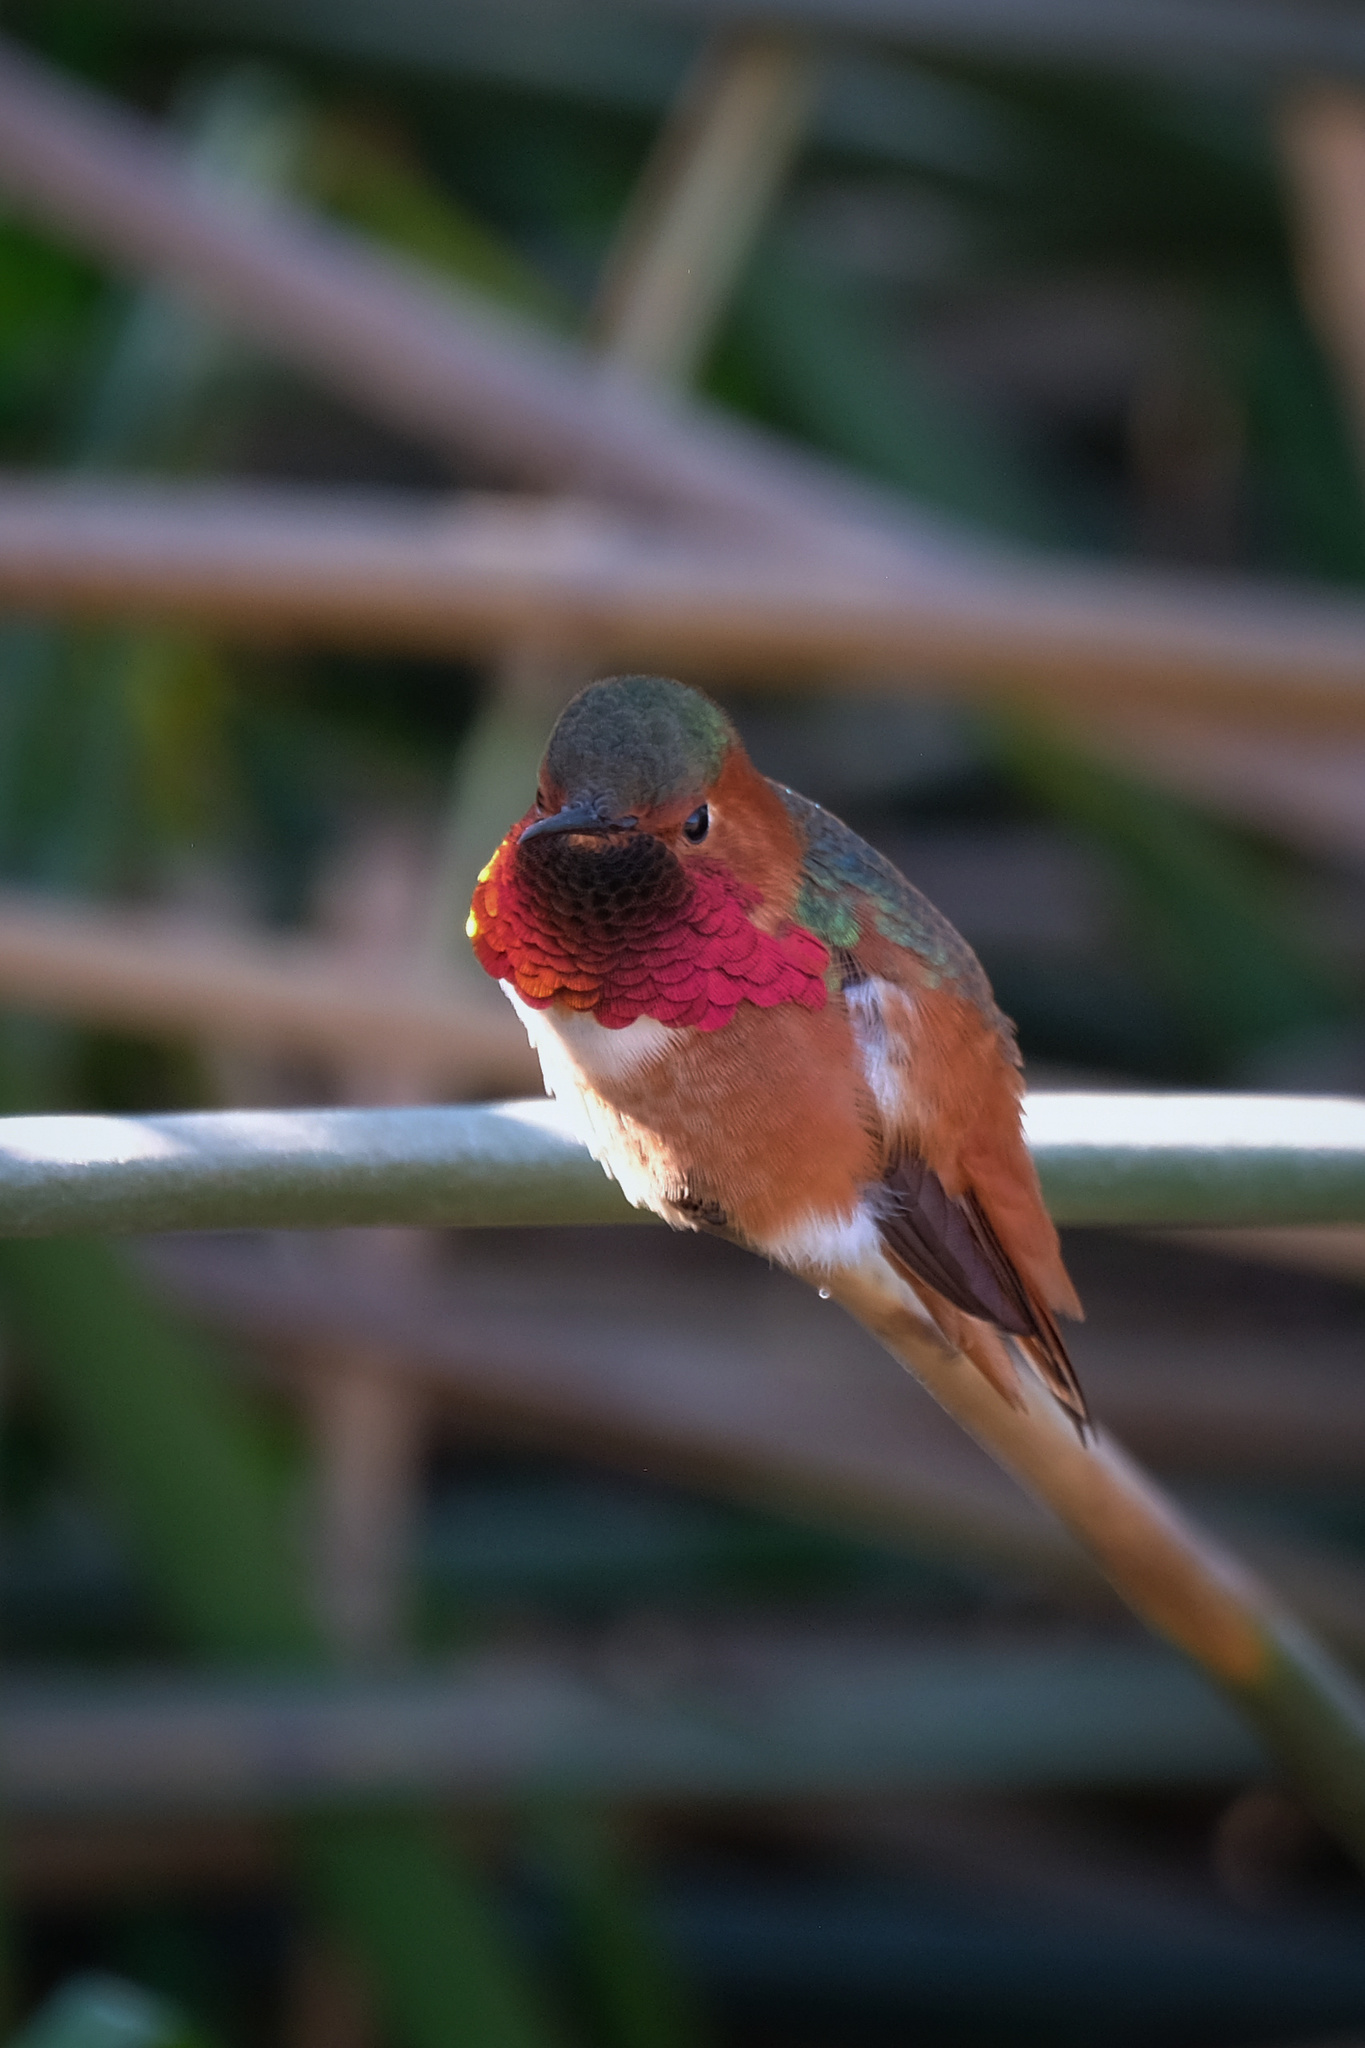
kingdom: Animalia
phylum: Chordata
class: Aves
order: Apodiformes
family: Trochilidae
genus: Selasphorus
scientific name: Selasphorus sasin
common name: Allen's hummingbird
